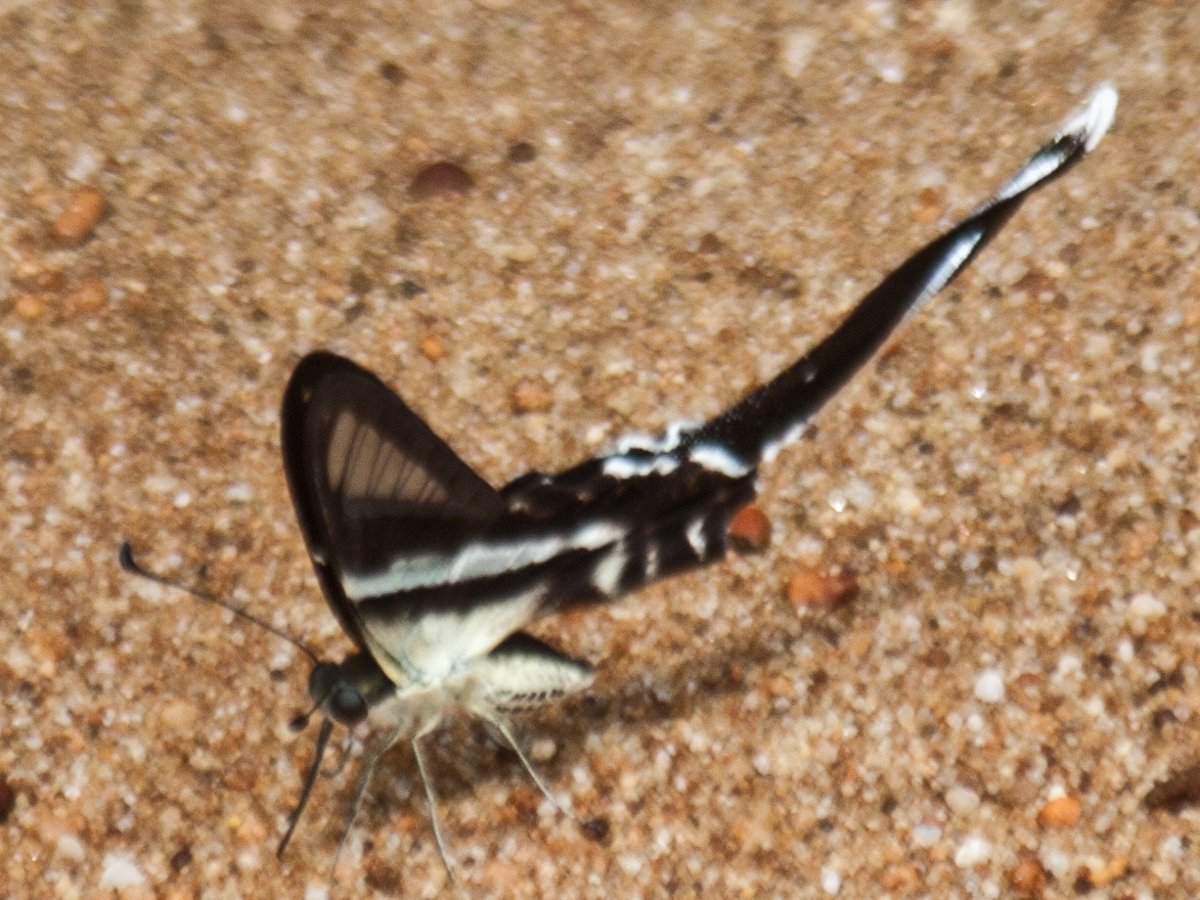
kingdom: Animalia
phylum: Arthropoda
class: Insecta
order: Lepidoptera
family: Papilionidae
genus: Lamproptera
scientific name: Lamproptera curius
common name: White dragontail
